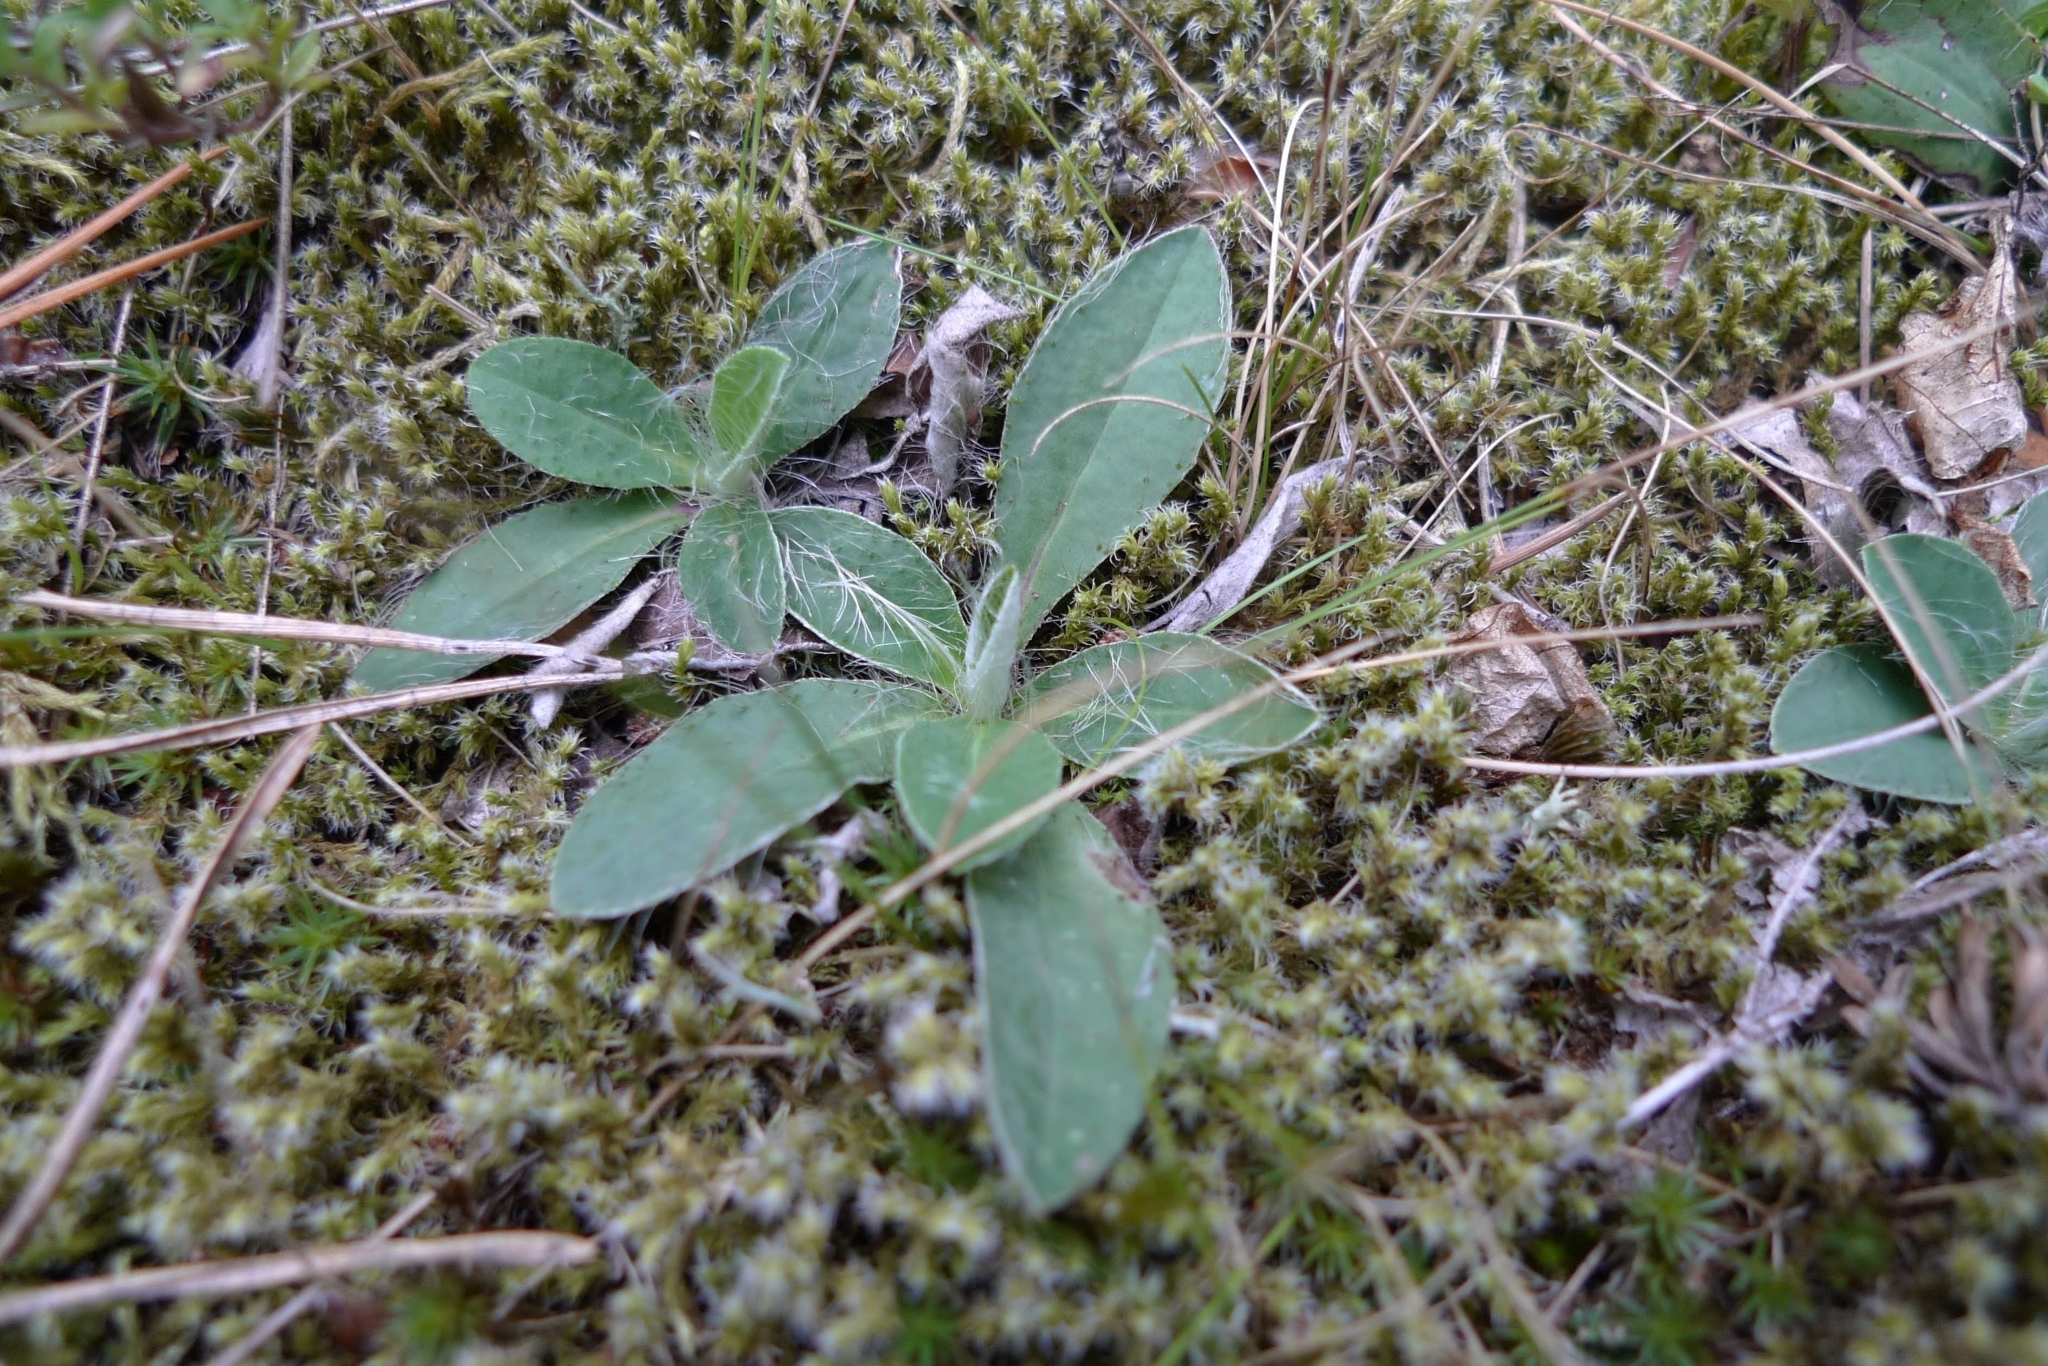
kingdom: Plantae
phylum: Tracheophyta
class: Magnoliopsida
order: Asterales
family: Asteraceae
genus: Pilosella
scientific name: Pilosella officinarum
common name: Mouse-ear hawkweed
